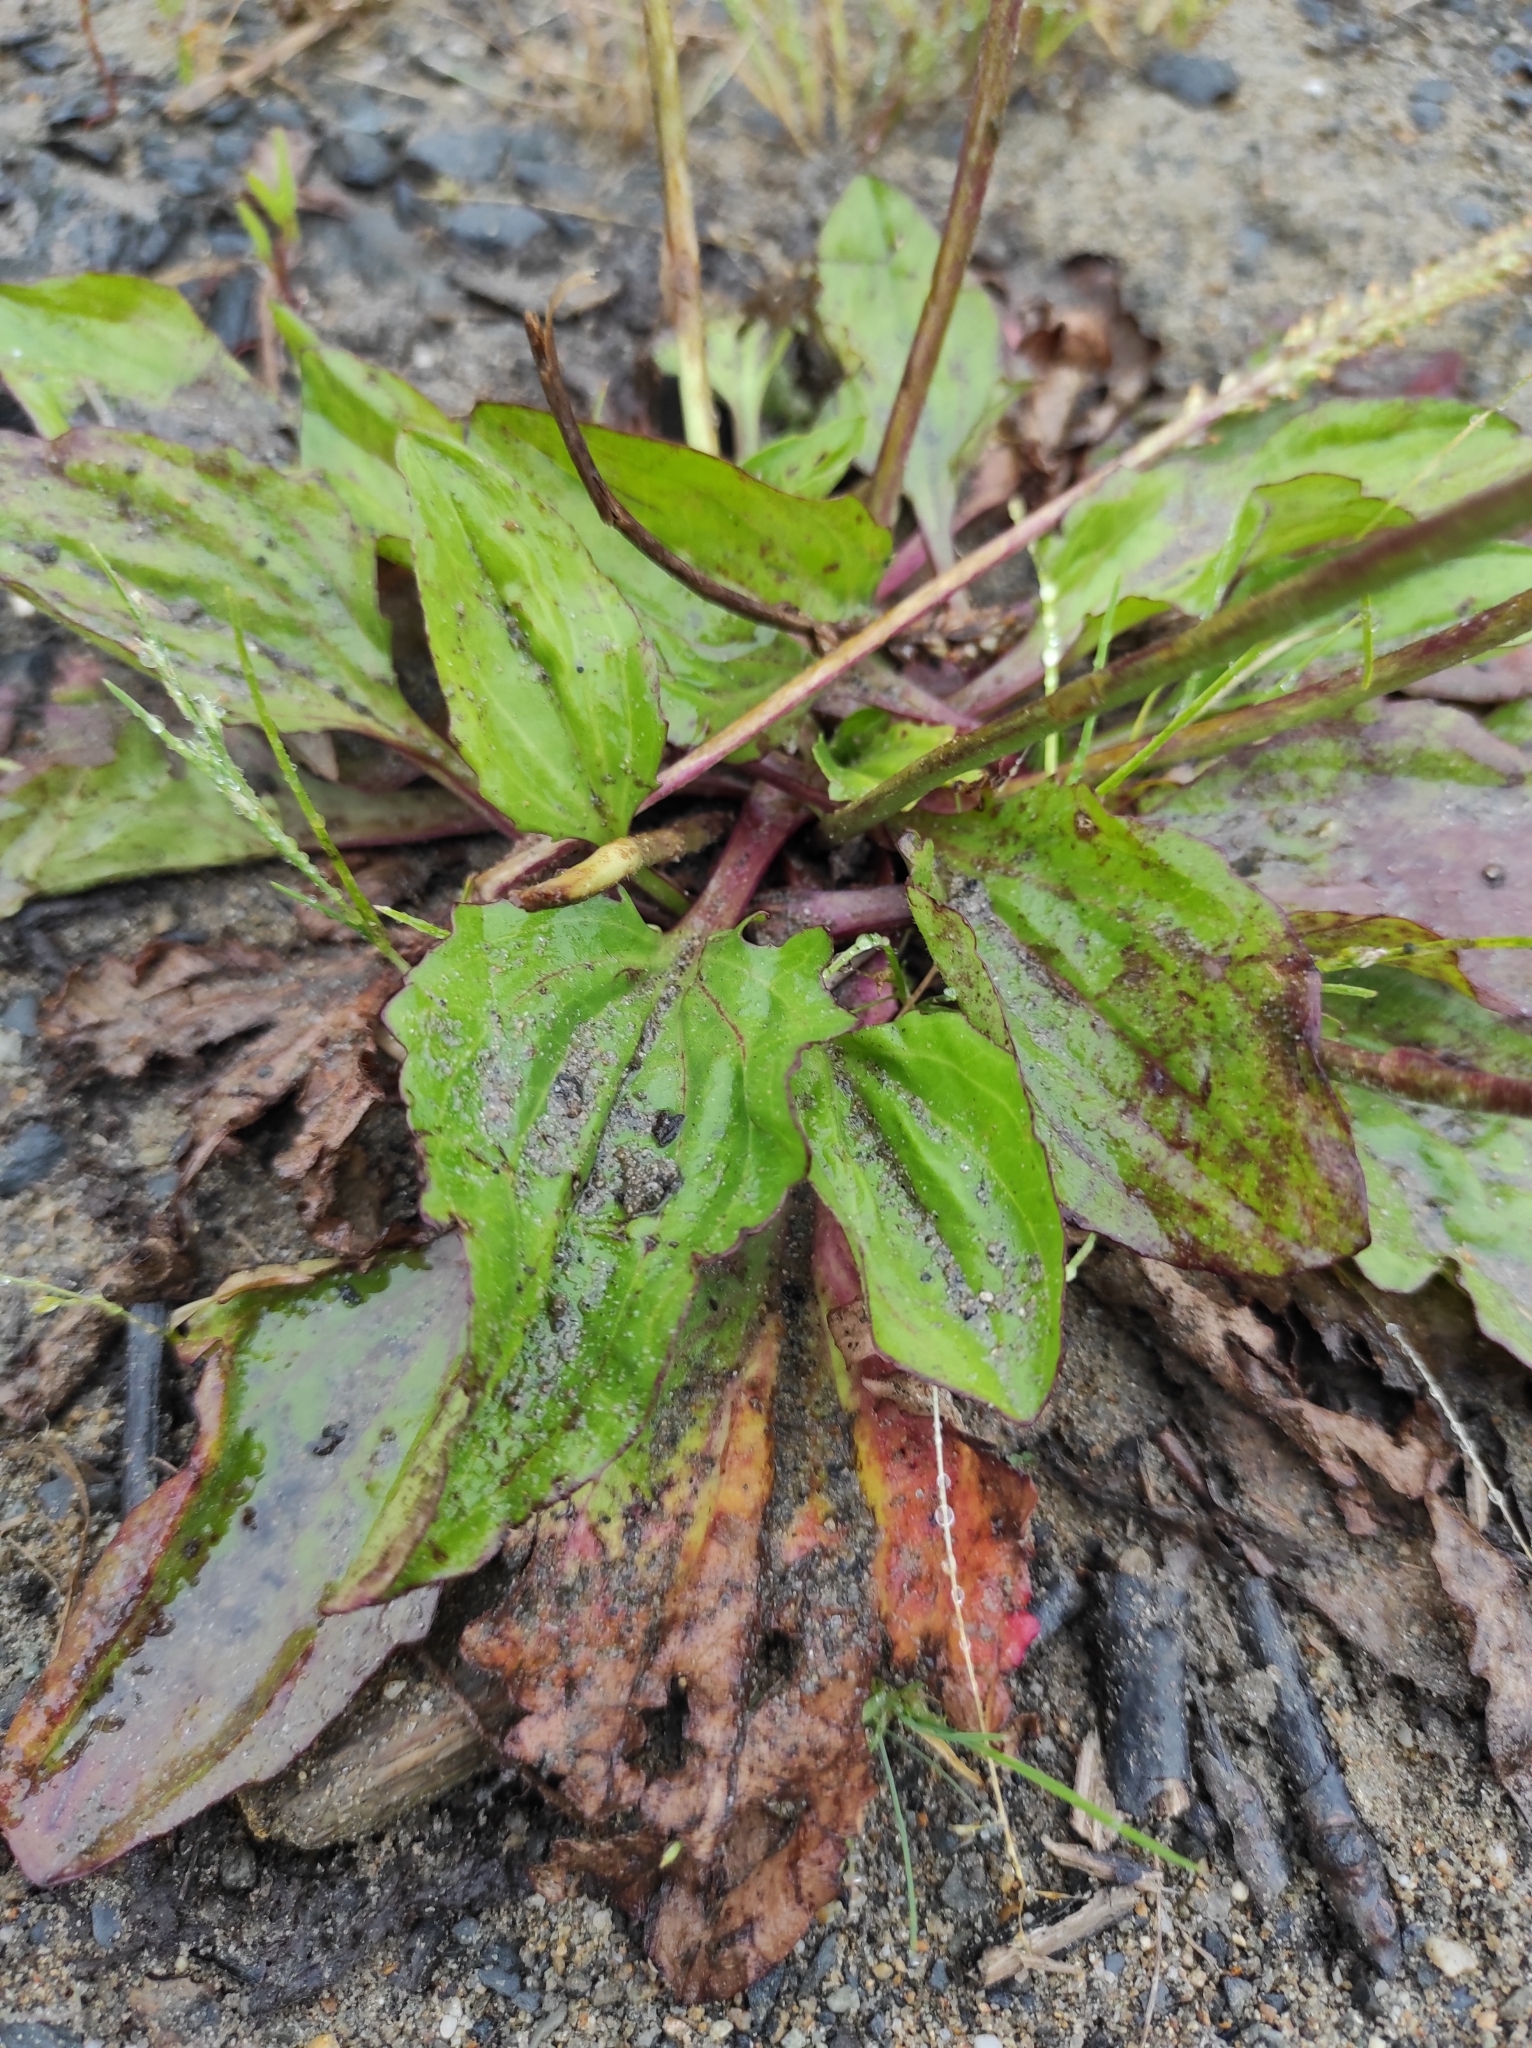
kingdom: Plantae
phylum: Tracheophyta
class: Magnoliopsida
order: Lamiales
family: Plantaginaceae
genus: Plantago
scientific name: Plantago major
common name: Common plantain
